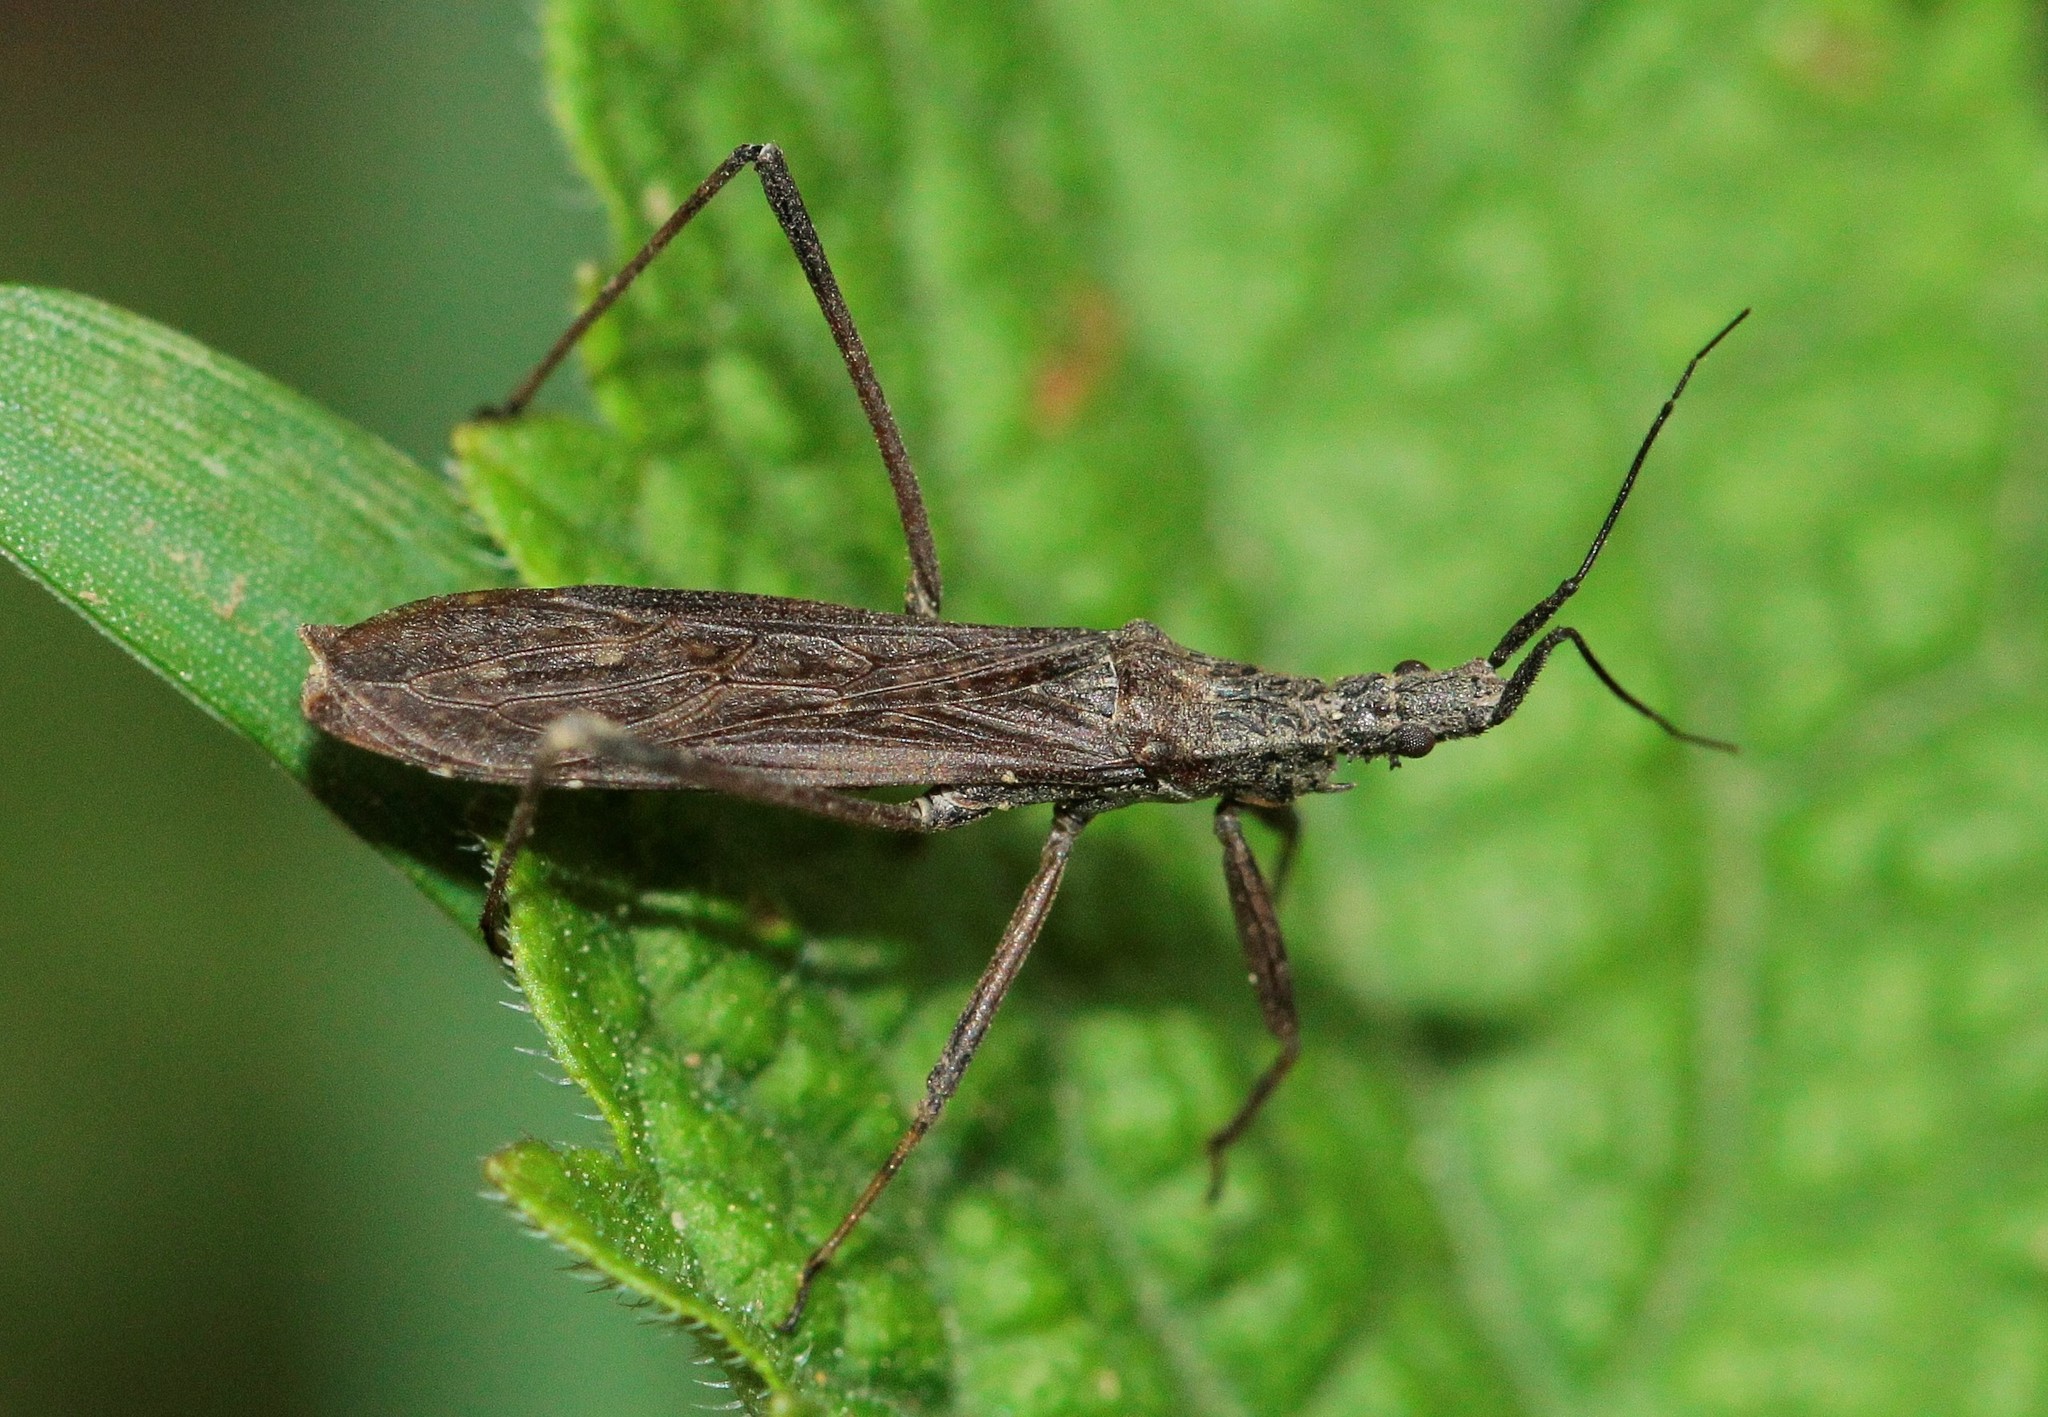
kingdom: Animalia
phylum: Arthropoda
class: Insecta
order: Hemiptera
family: Reduviidae
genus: Pygolampis
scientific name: Pygolampis bidentata
